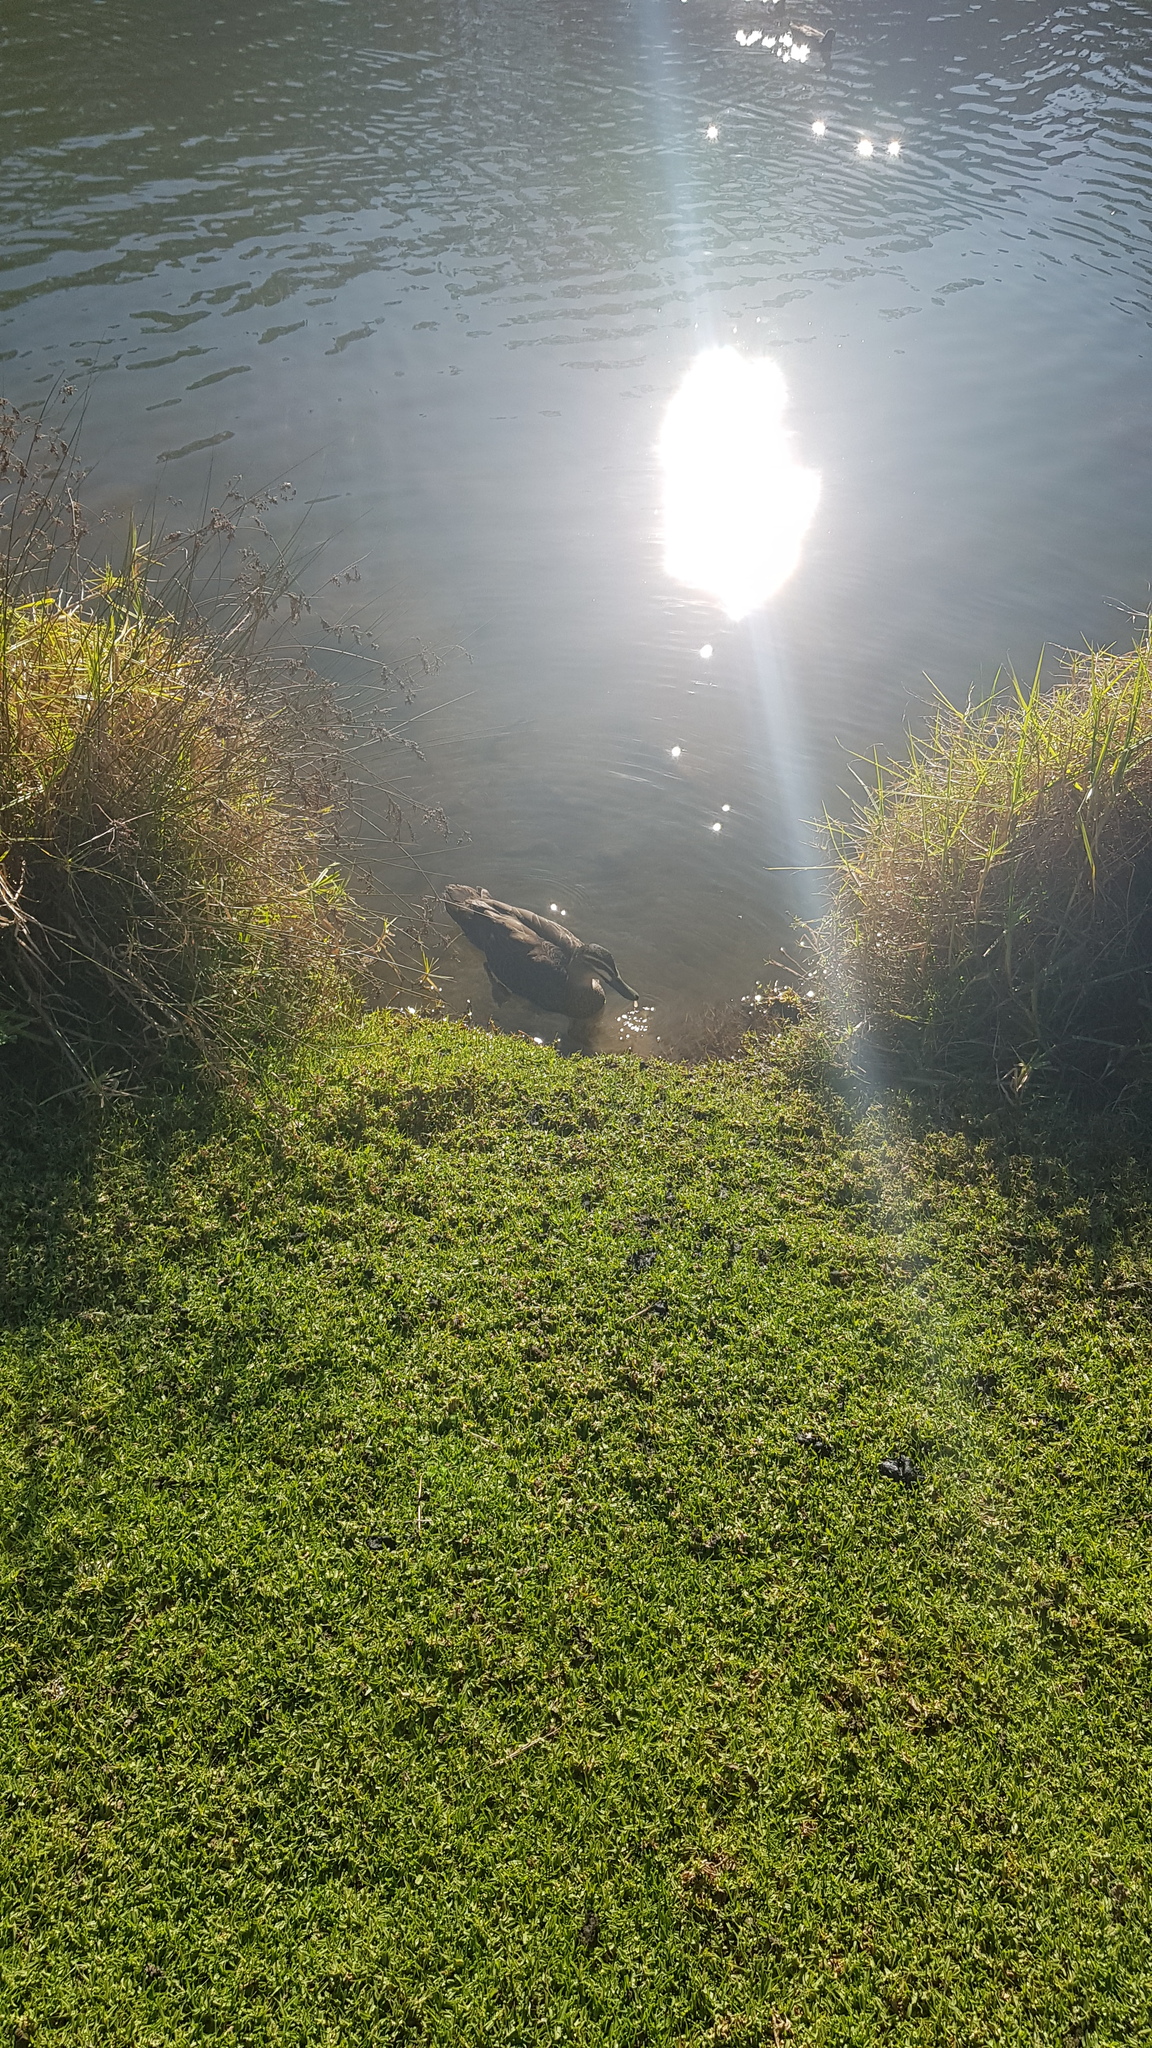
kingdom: Animalia
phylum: Chordata
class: Aves
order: Anseriformes
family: Anatidae
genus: Anas
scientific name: Anas superciliosa
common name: Pacific black duck
